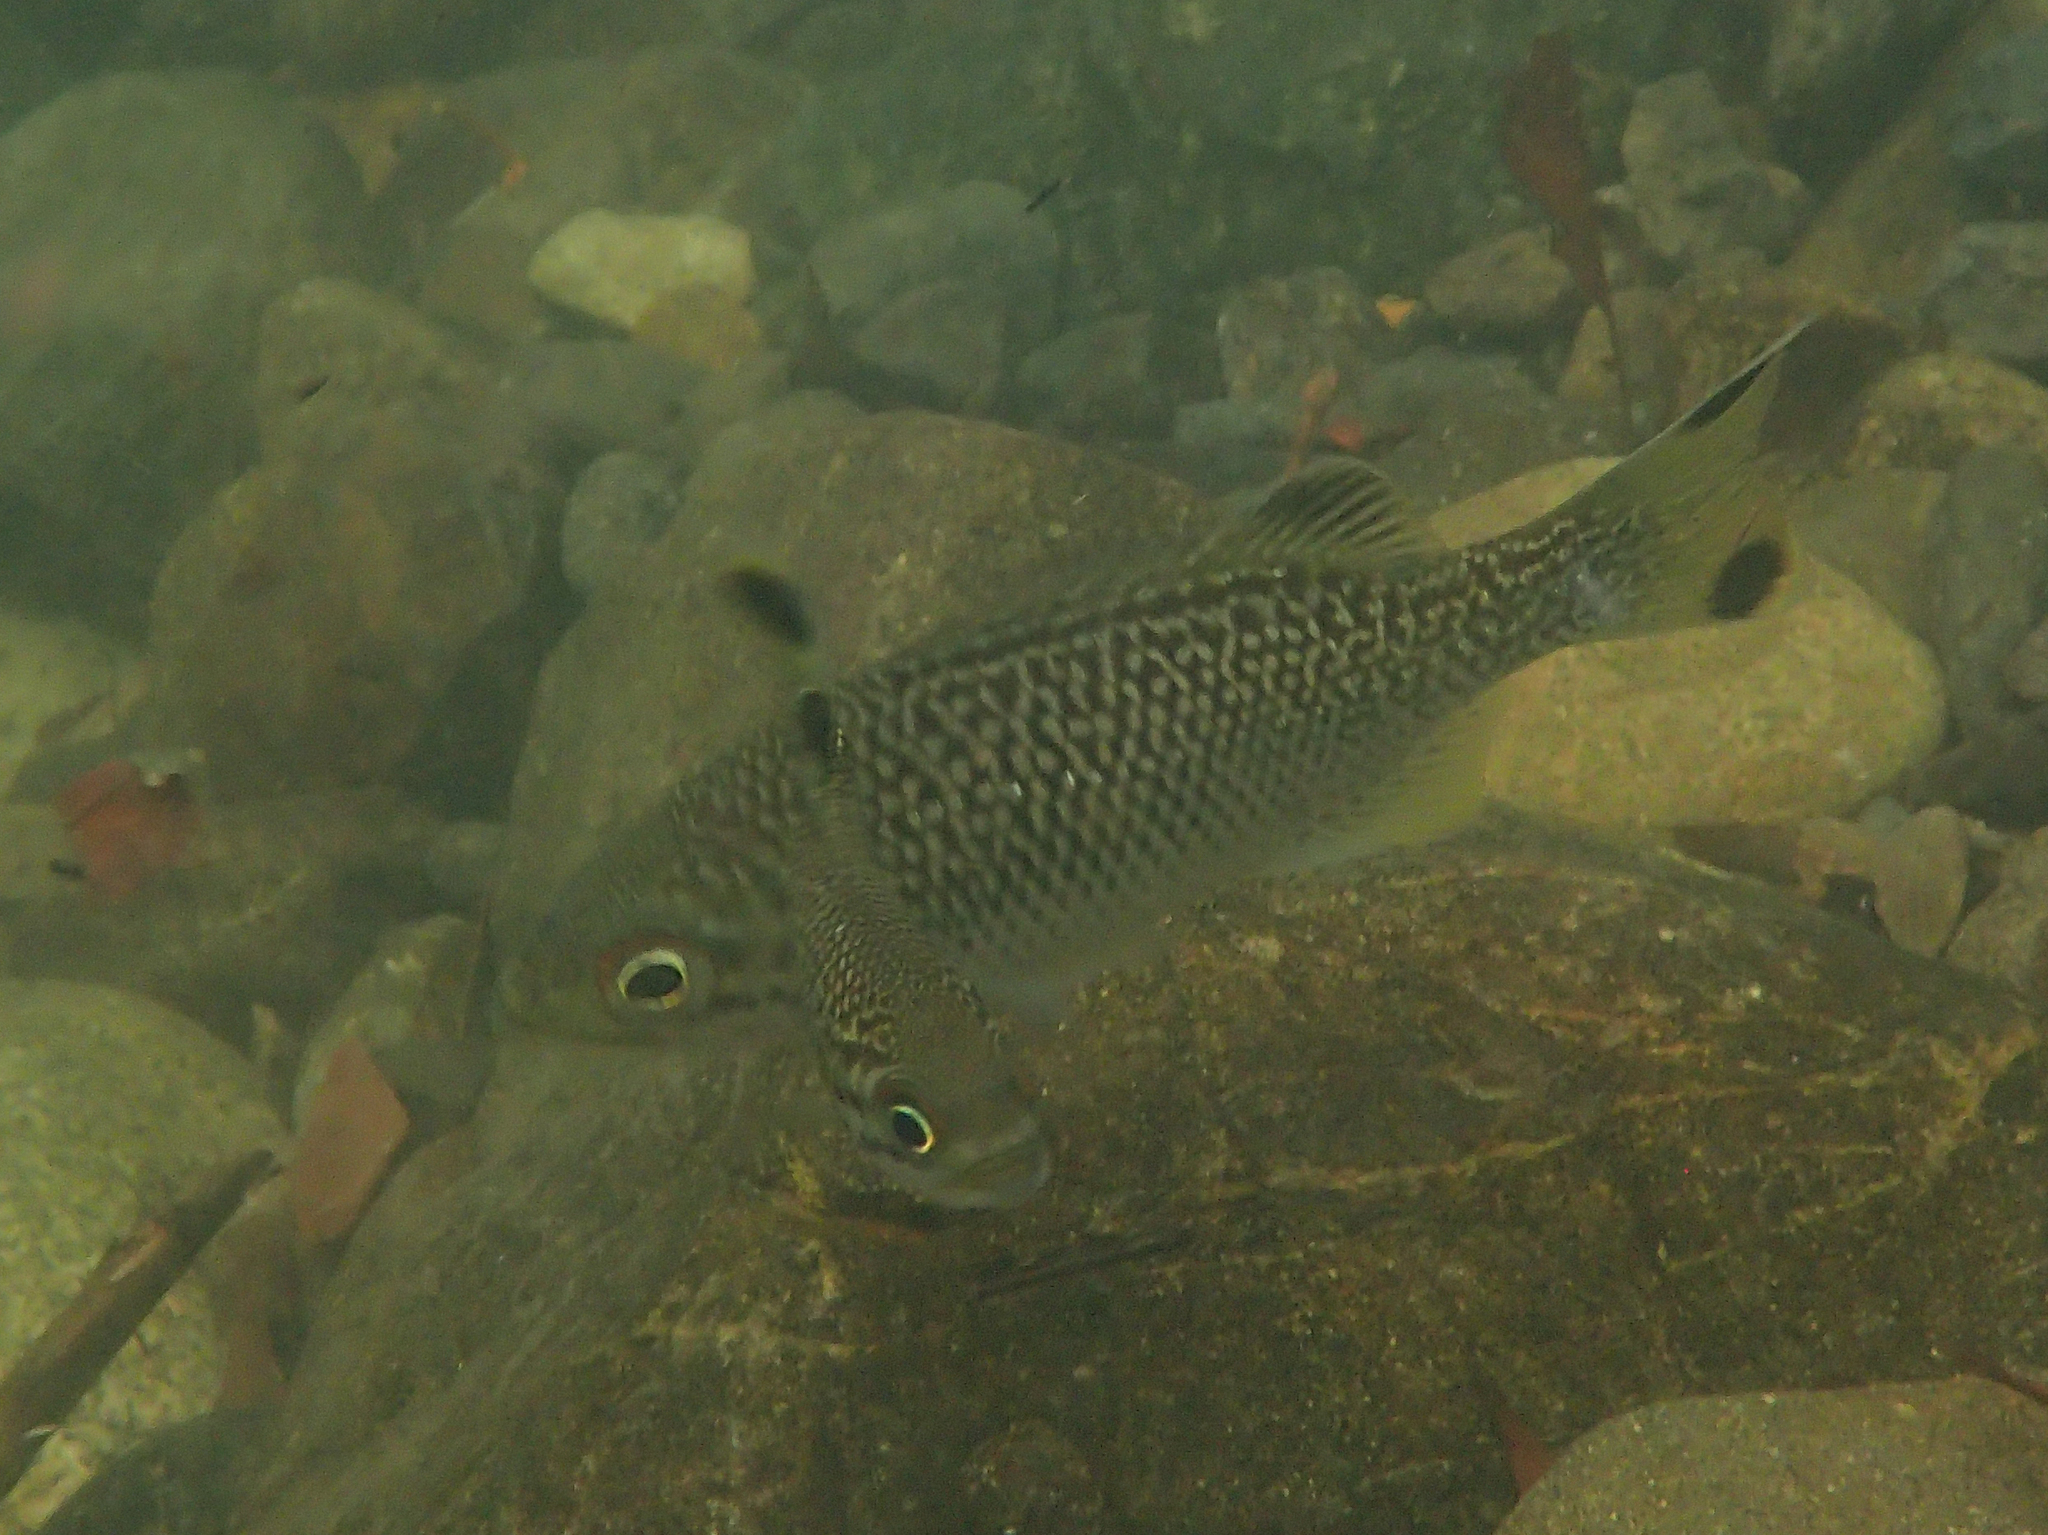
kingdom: Animalia
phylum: Chordata
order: Perciformes
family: Kuhliidae
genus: Kuhlia
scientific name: Kuhlia rupestris
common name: Rock flagtail
